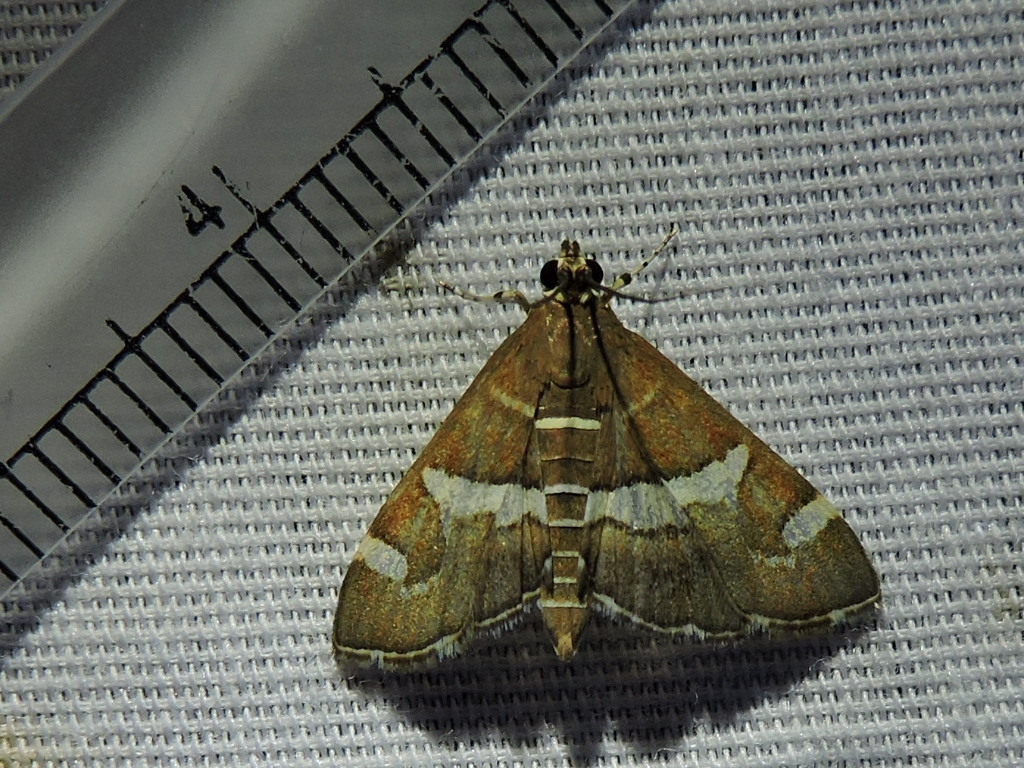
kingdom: Animalia
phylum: Arthropoda
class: Insecta
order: Lepidoptera
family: Crambidae
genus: Spoladea
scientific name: Spoladea recurvalis
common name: Beet webworm moth
